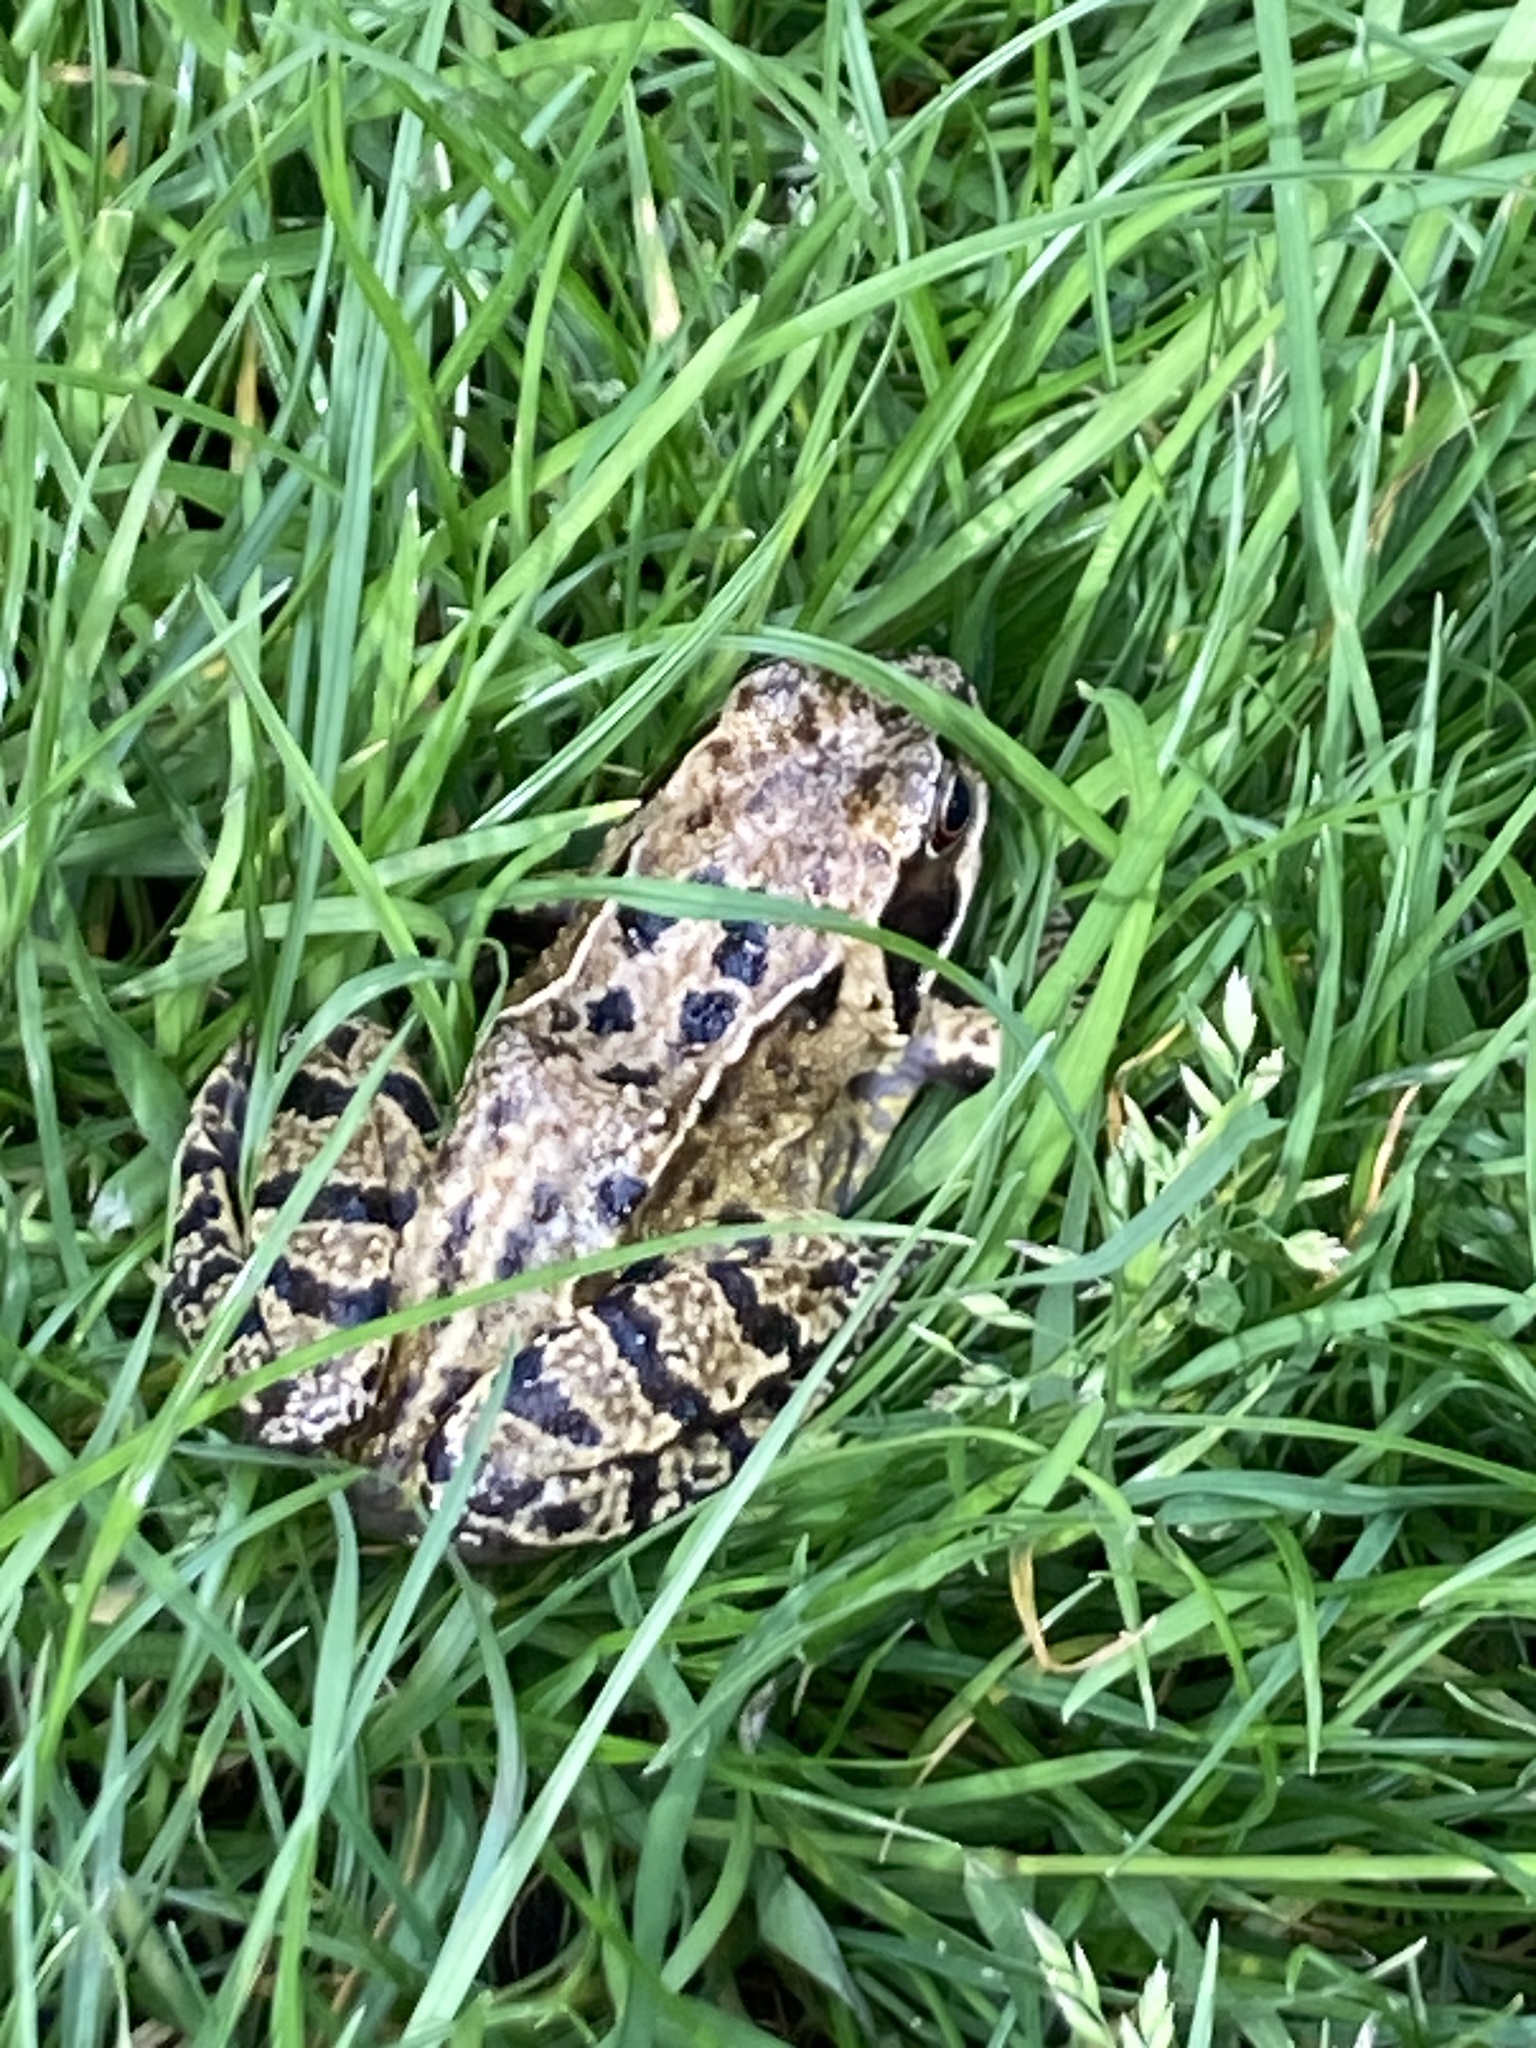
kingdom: Animalia
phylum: Chordata
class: Amphibia
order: Anura
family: Ranidae
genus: Rana
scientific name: Rana temporaria
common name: Common frog
